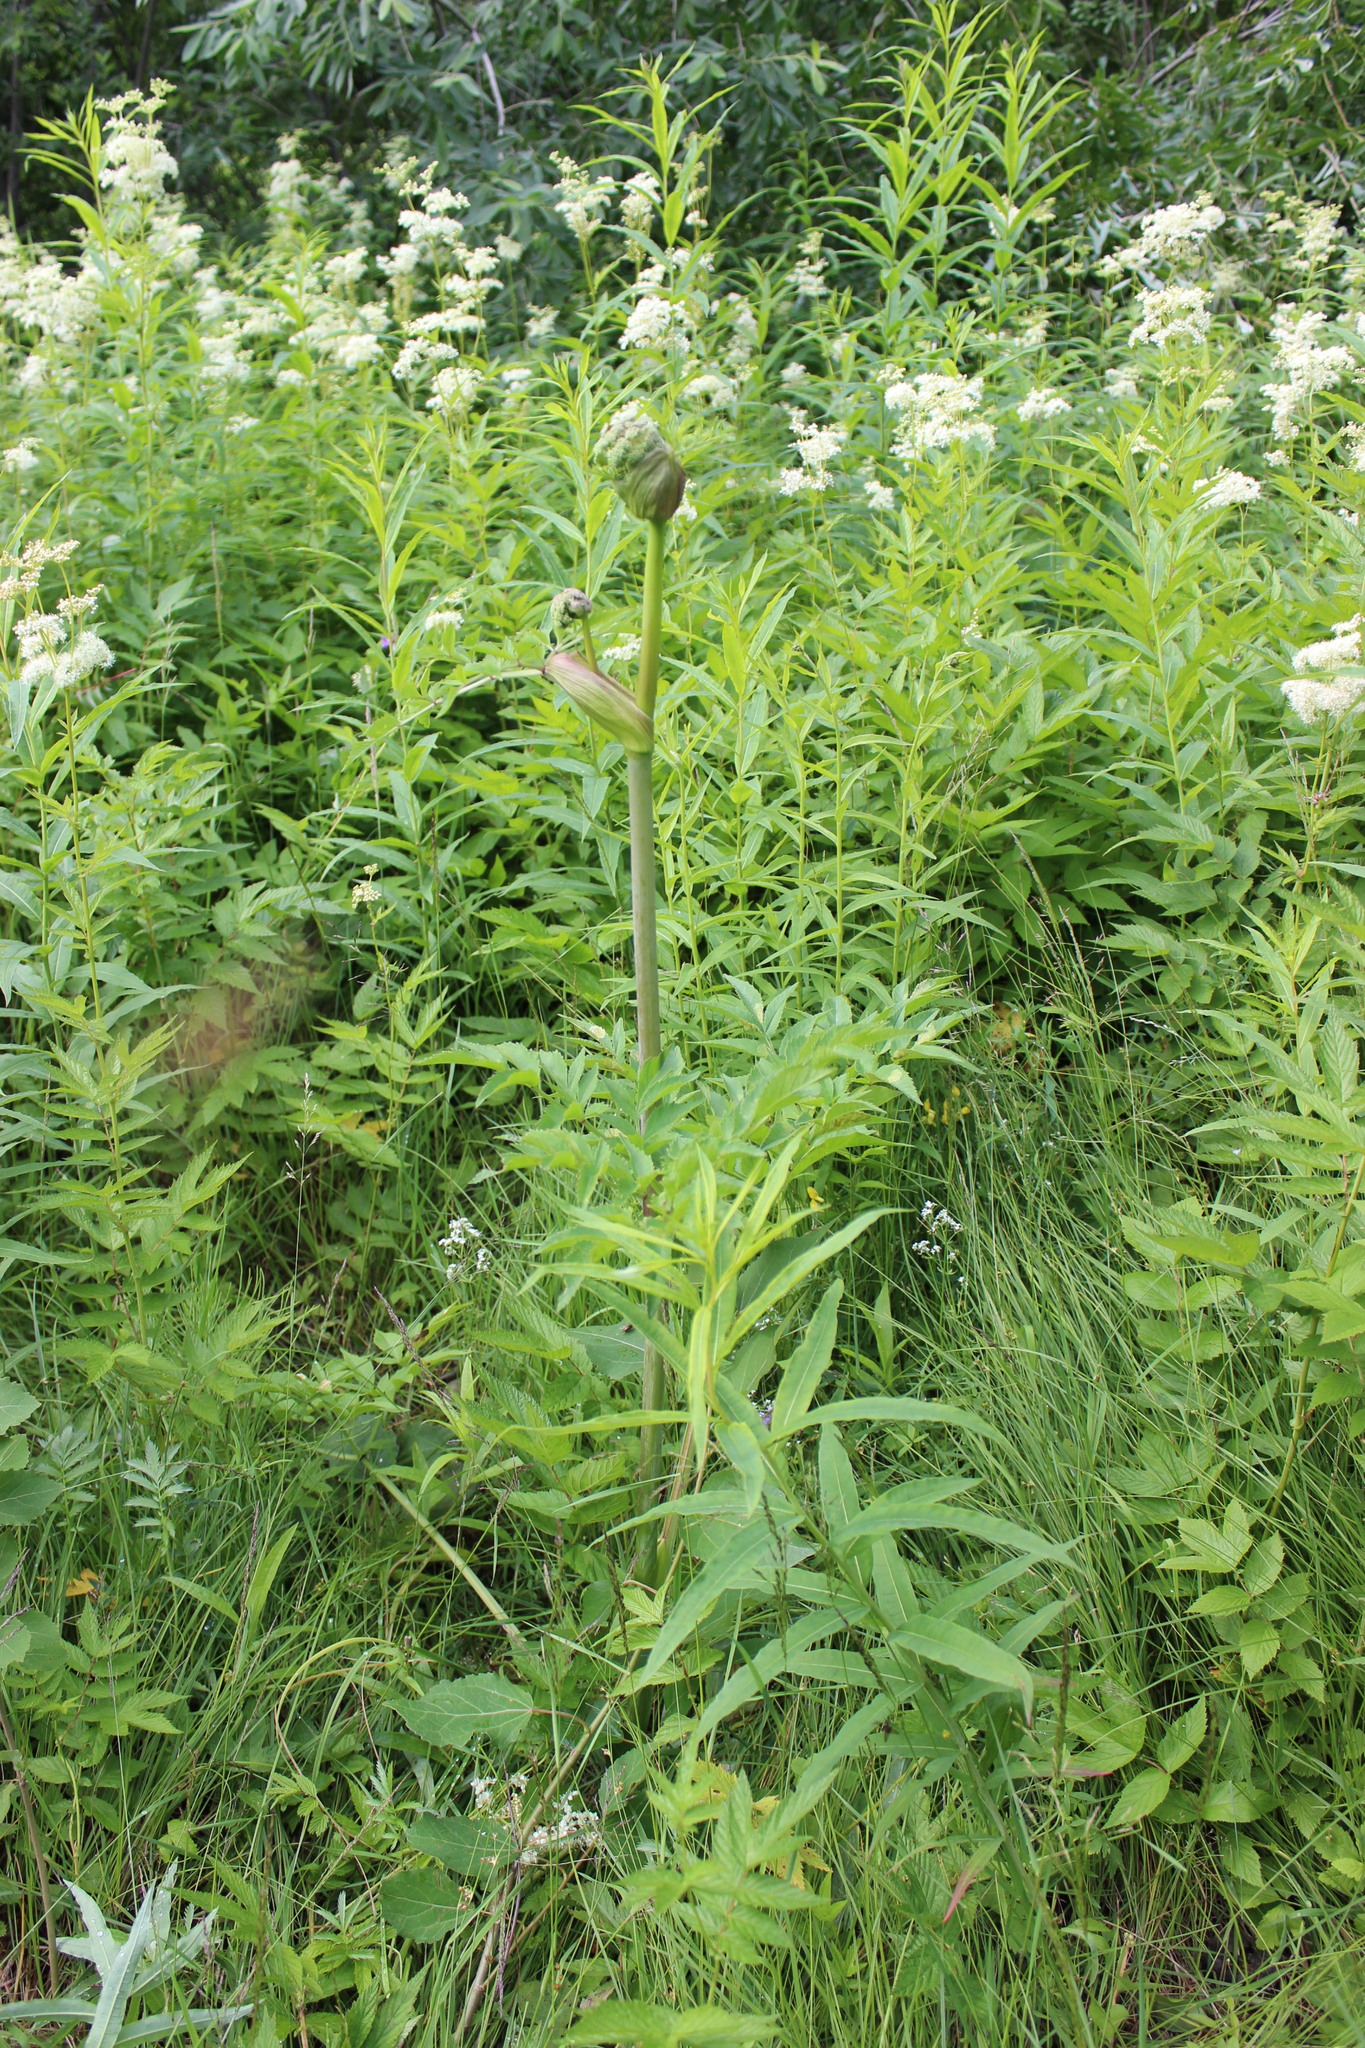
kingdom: Plantae
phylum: Tracheophyta
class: Magnoliopsida
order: Apiales
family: Apiaceae
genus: Angelica
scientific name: Angelica sylvestris
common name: Wild angelica
